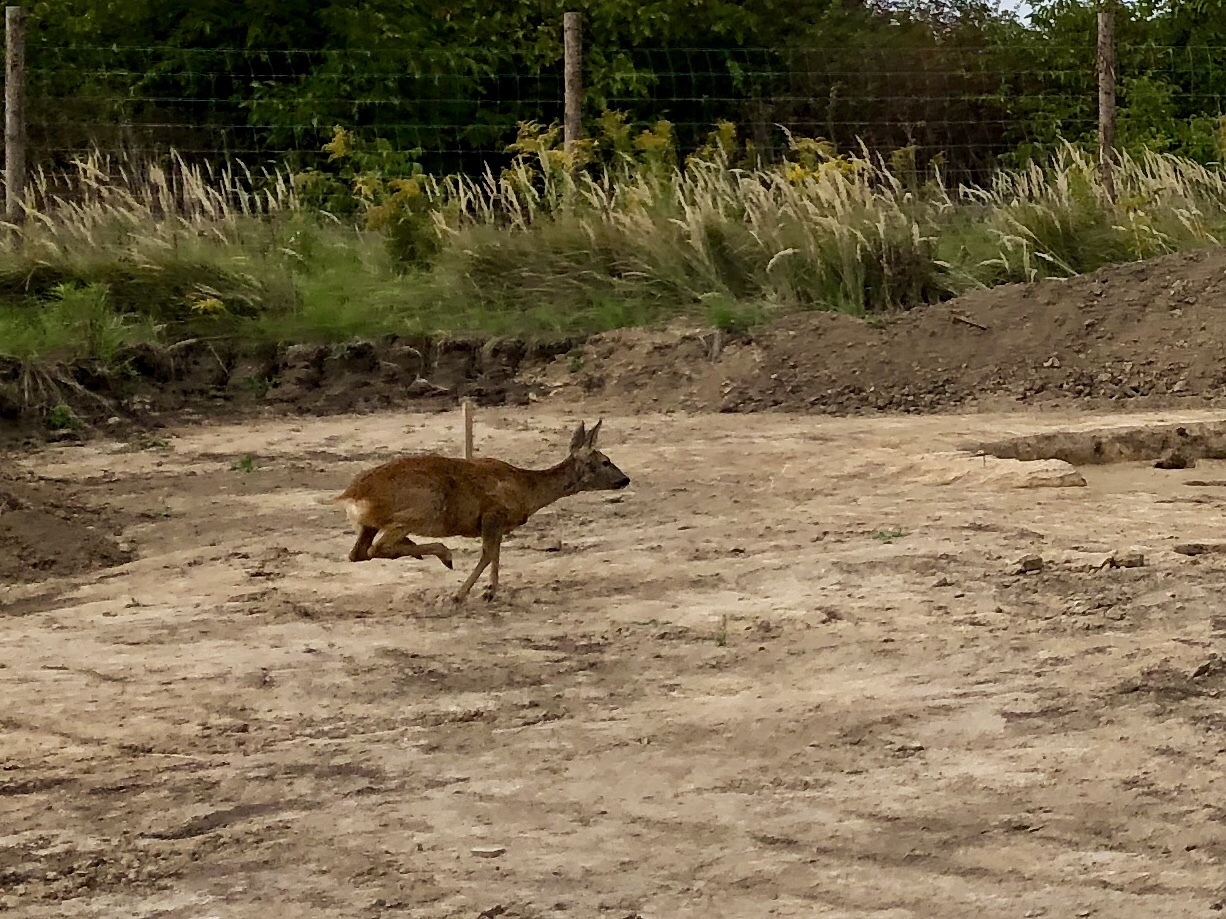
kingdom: Animalia
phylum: Chordata
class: Mammalia
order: Artiodactyla
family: Cervidae
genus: Capreolus
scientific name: Capreolus capreolus
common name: Western roe deer
